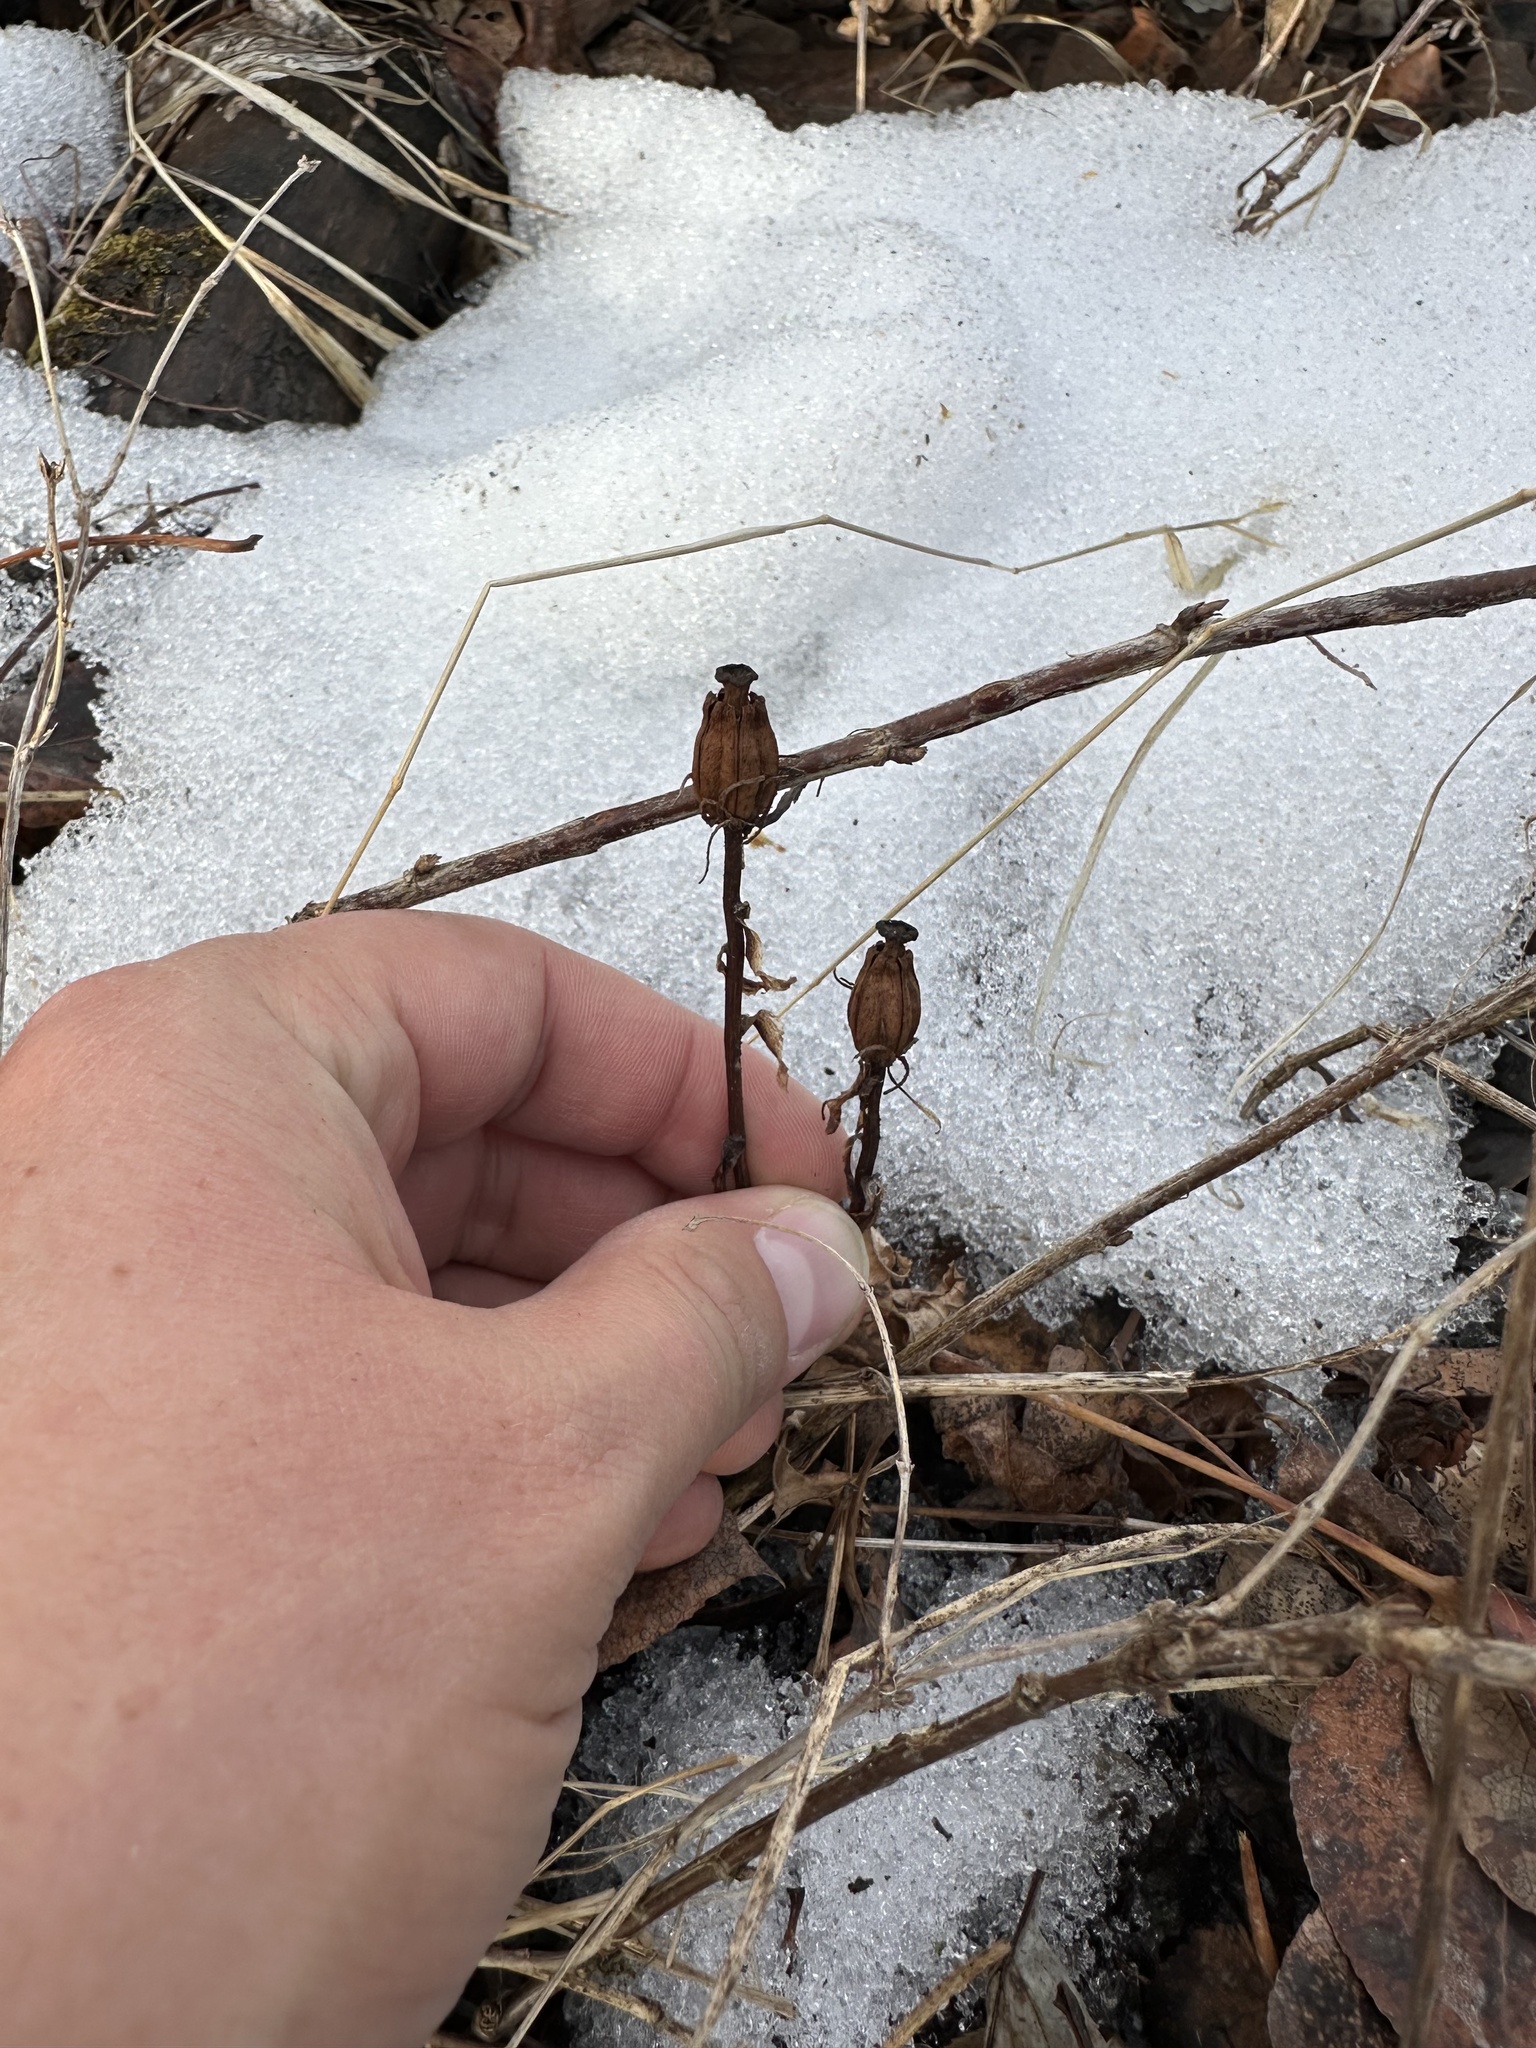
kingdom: Plantae
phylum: Tracheophyta
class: Magnoliopsida
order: Ericales
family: Ericaceae
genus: Monotropa
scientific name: Monotropa uniflora
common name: Convulsion root
